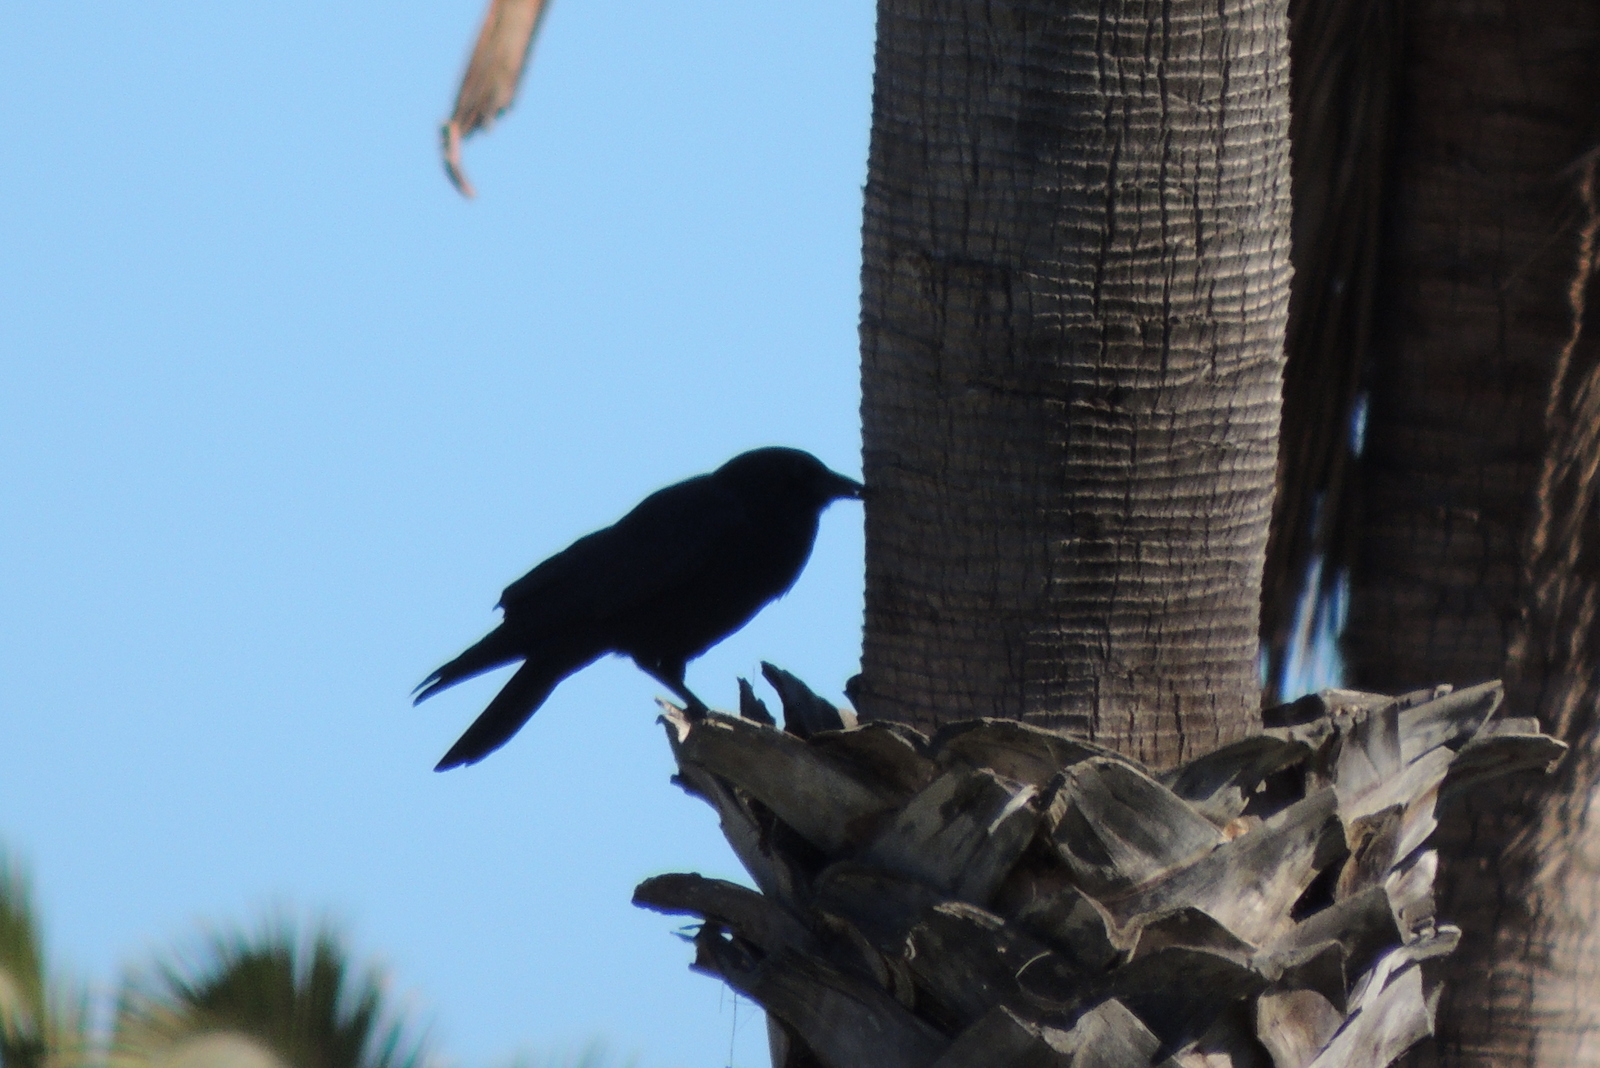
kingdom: Animalia
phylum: Chordata
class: Aves
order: Passeriformes
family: Corvidae
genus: Corvus
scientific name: Corvus brachyrhynchos
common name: American crow
